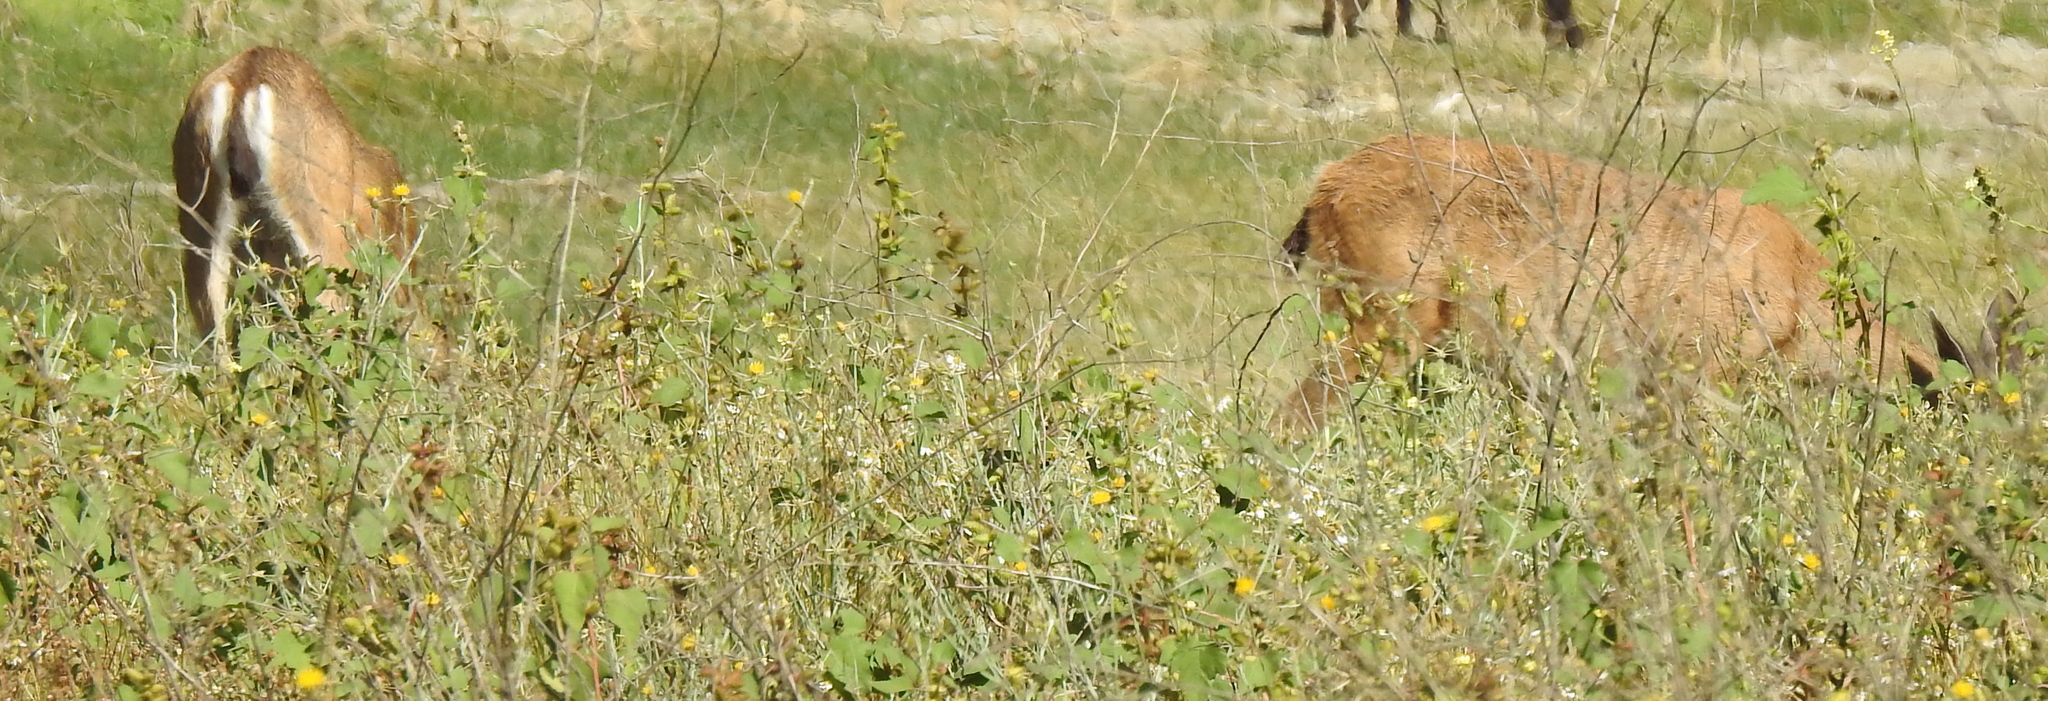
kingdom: Animalia
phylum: Chordata
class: Mammalia
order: Artiodactyla
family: Cervidae
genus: Odocoileus
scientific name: Odocoileus hemionus
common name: Mule deer
